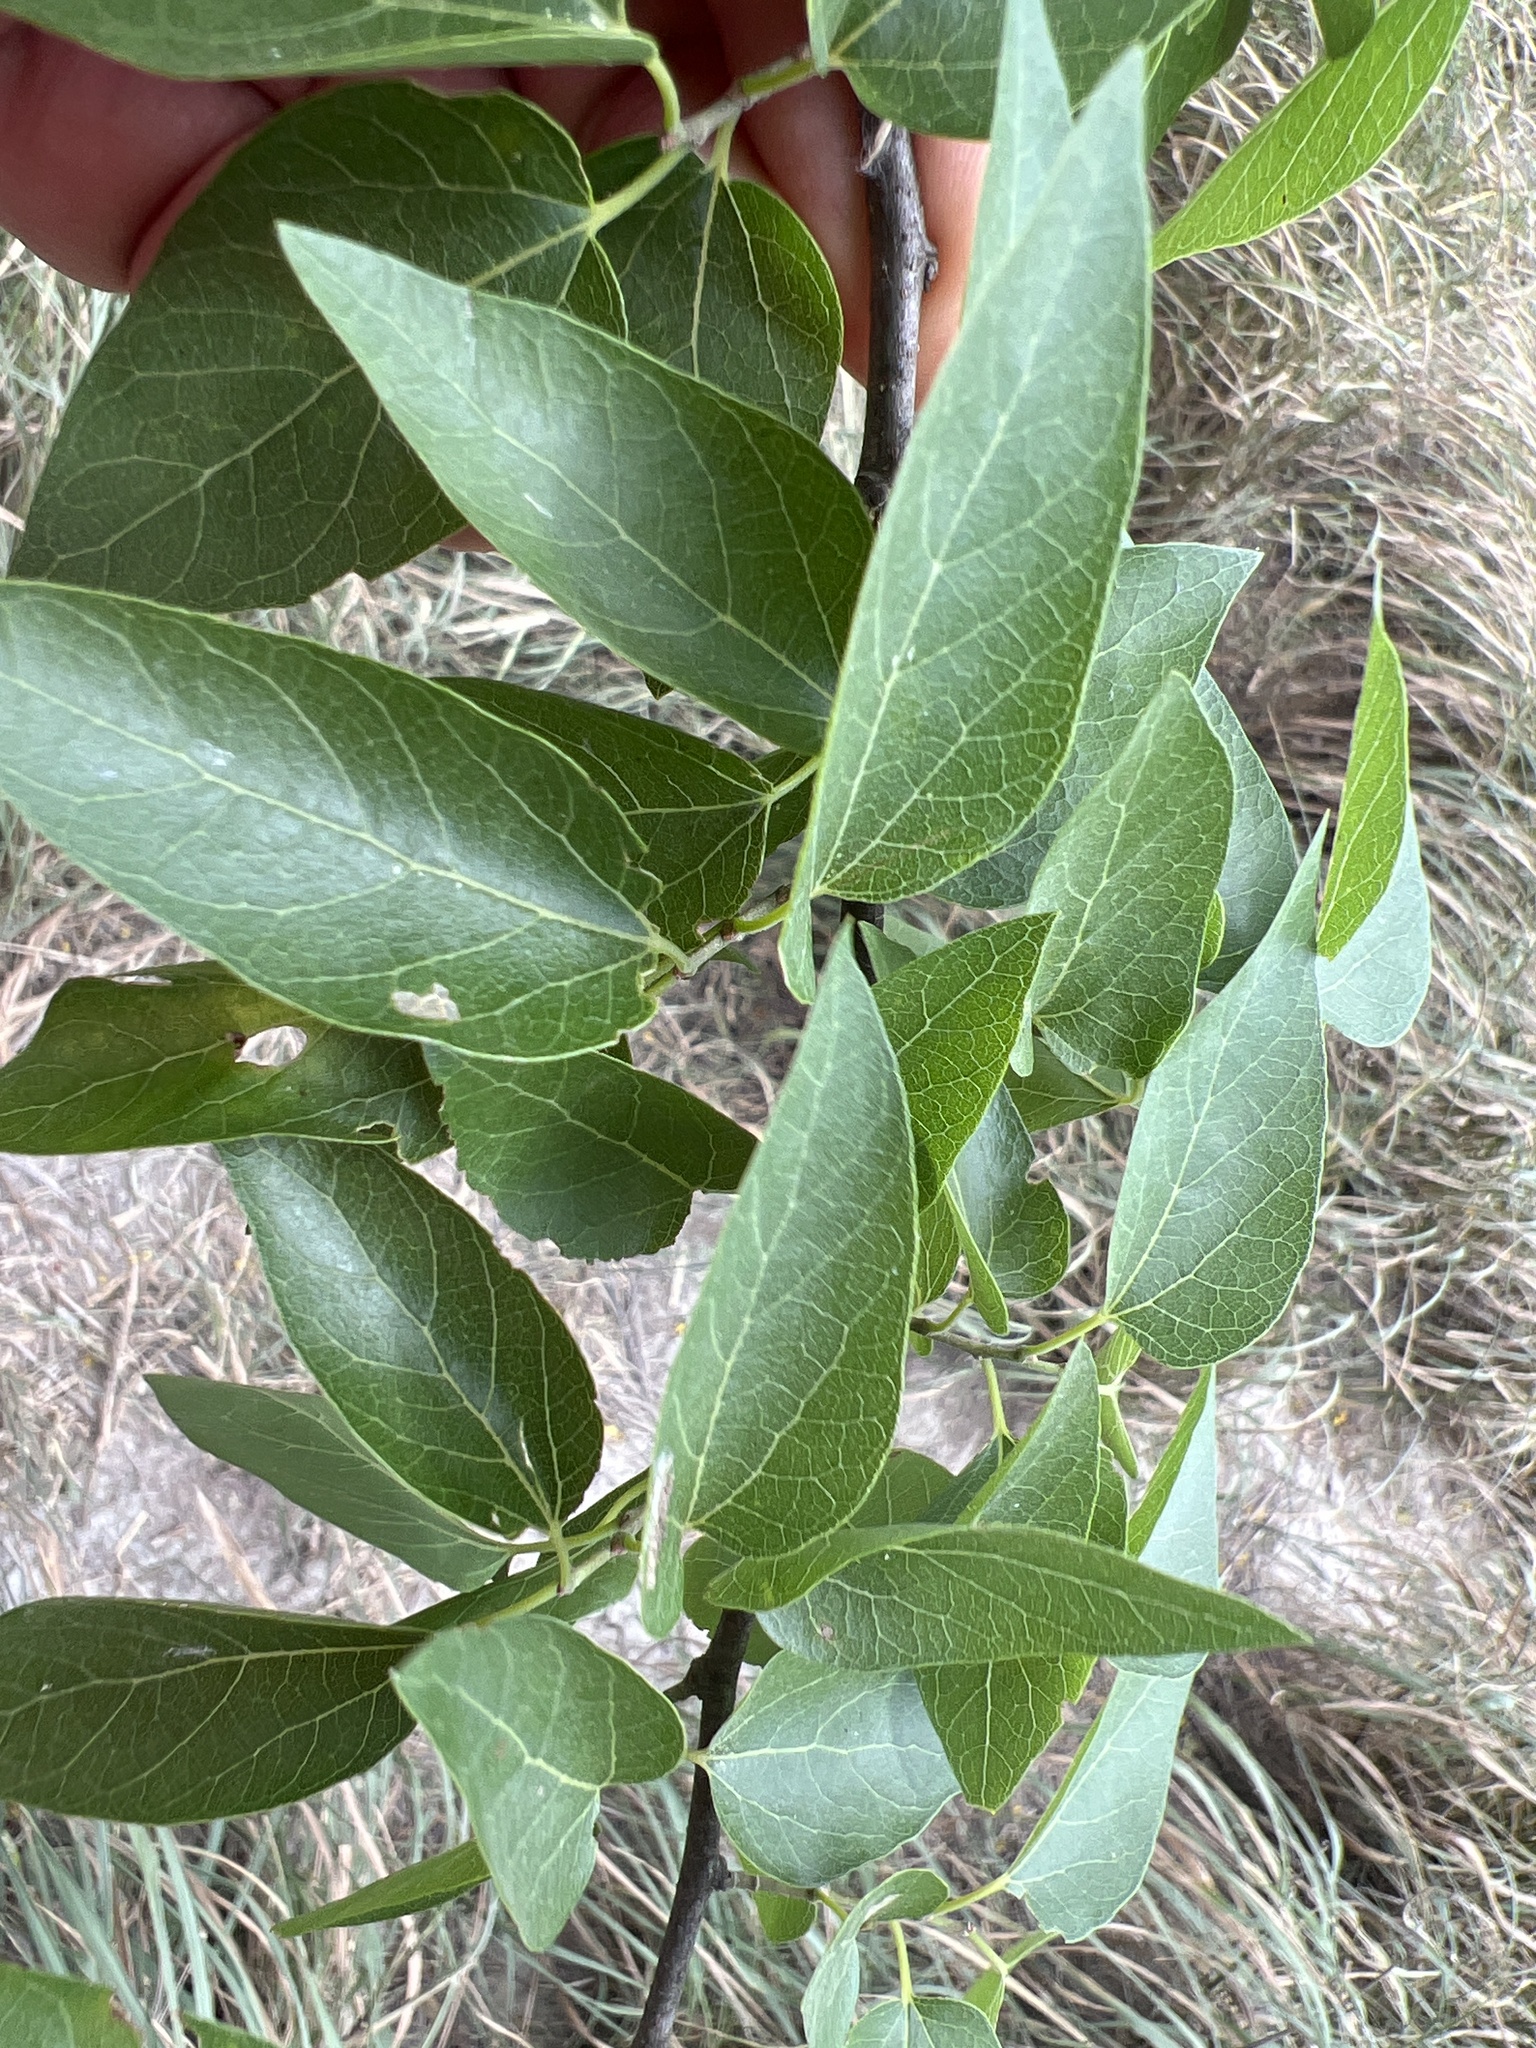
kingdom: Plantae
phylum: Tracheophyta
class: Magnoliopsida
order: Rosales
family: Cannabaceae
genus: Celtis
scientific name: Celtis laevigata
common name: Sugarberry
